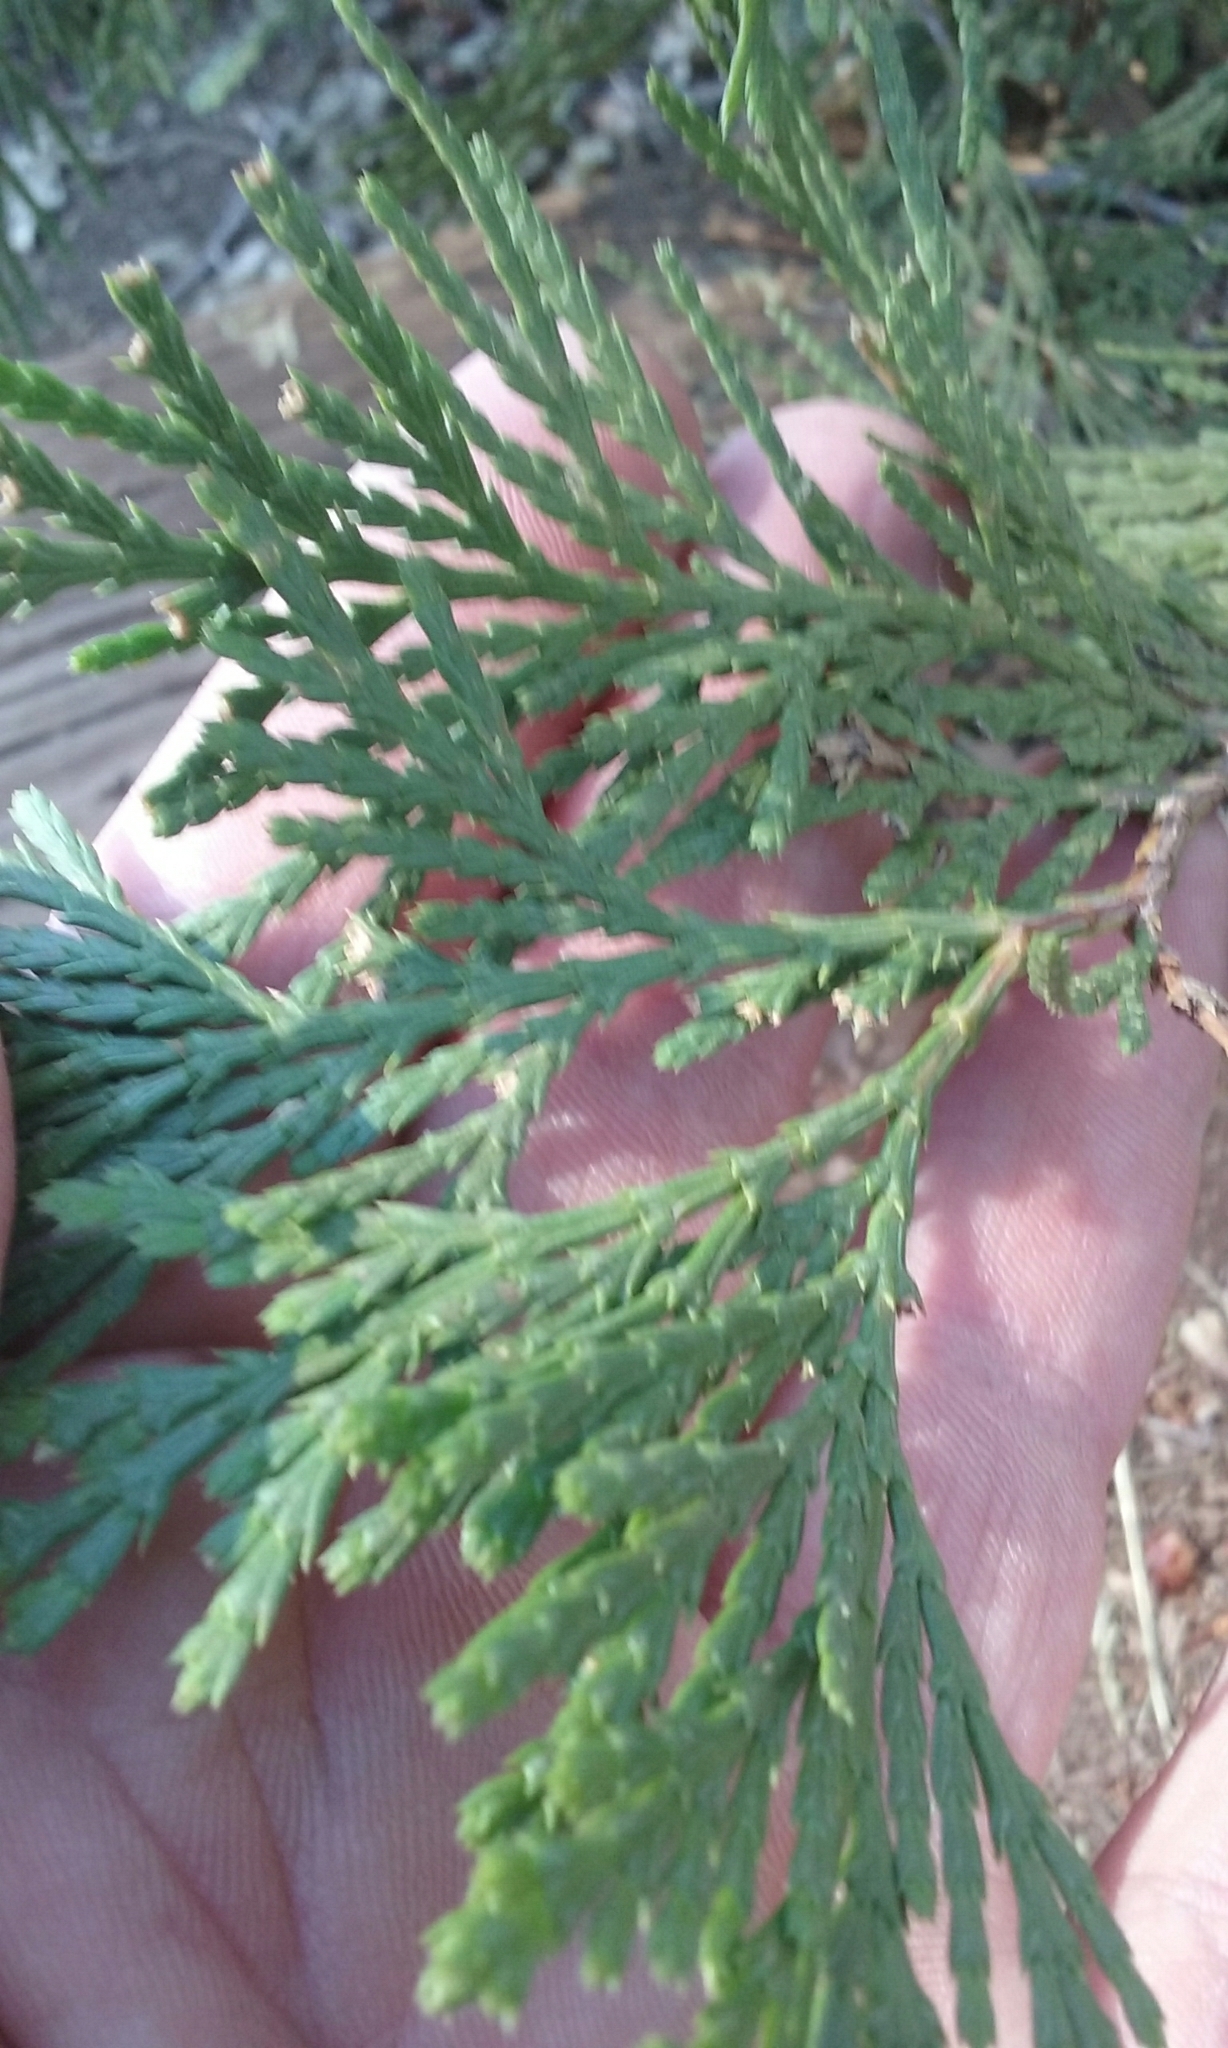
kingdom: Plantae
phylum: Tracheophyta
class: Pinopsida
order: Pinales
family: Cupressaceae
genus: Calocedrus
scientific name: Calocedrus decurrens
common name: Californian incense-cedar
